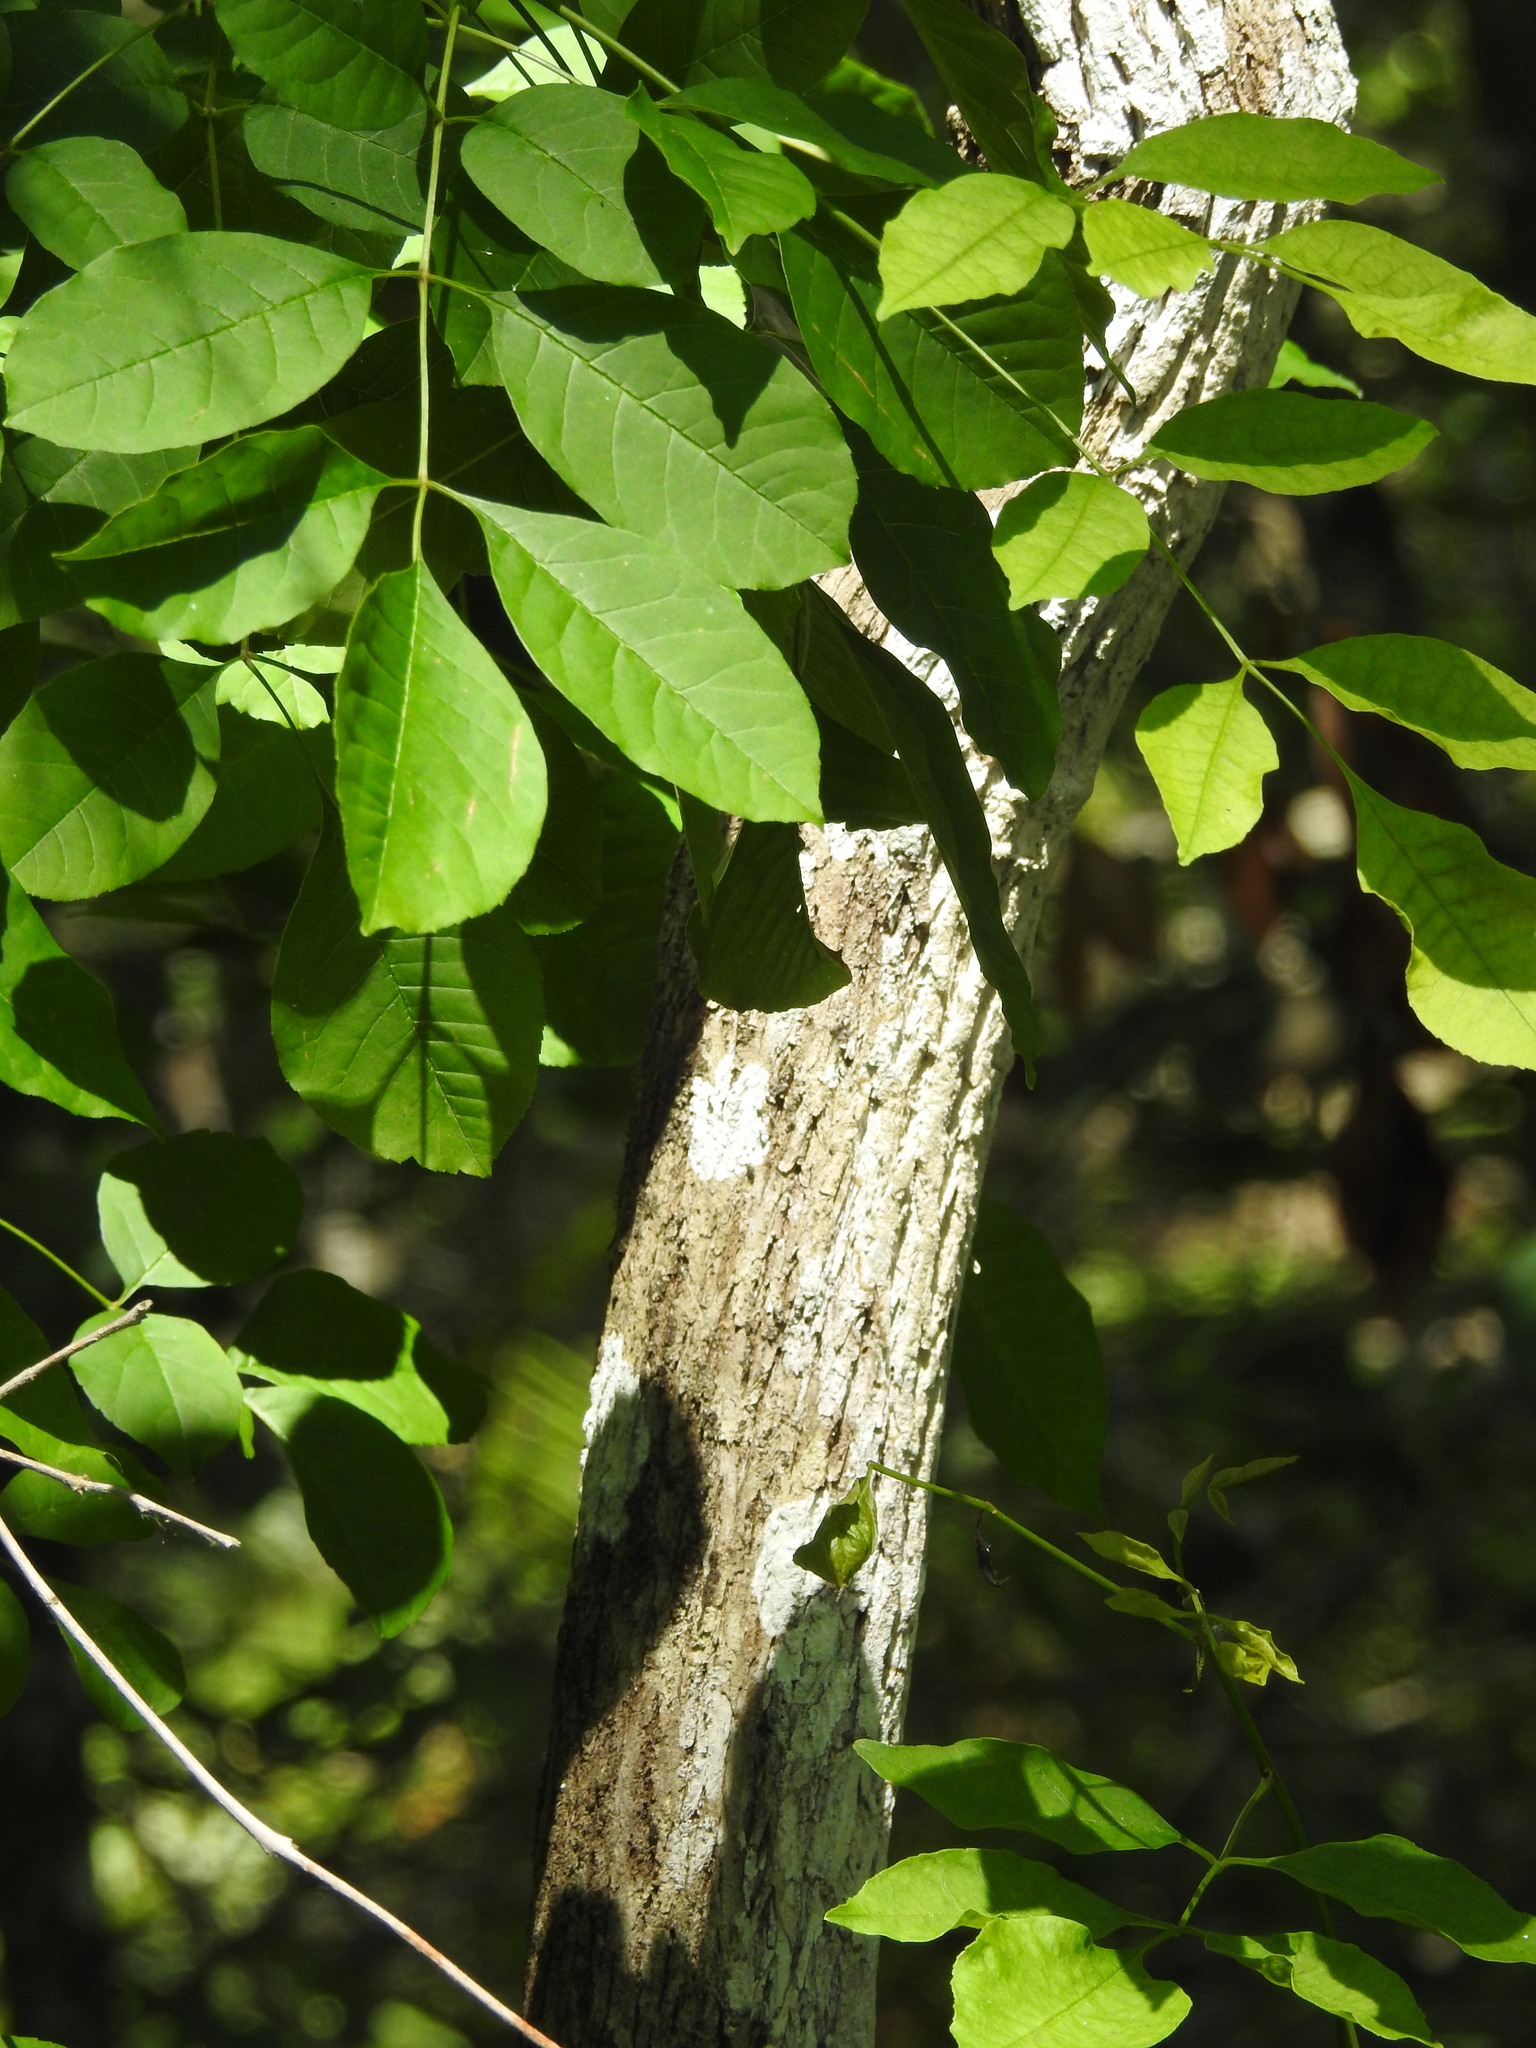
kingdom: Plantae
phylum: Tracheophyta
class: Magnoliopsida
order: Lamiales
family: Oleaceae
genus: Fraxinus
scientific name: Fraxinus caroliniana
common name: Carolina ash
